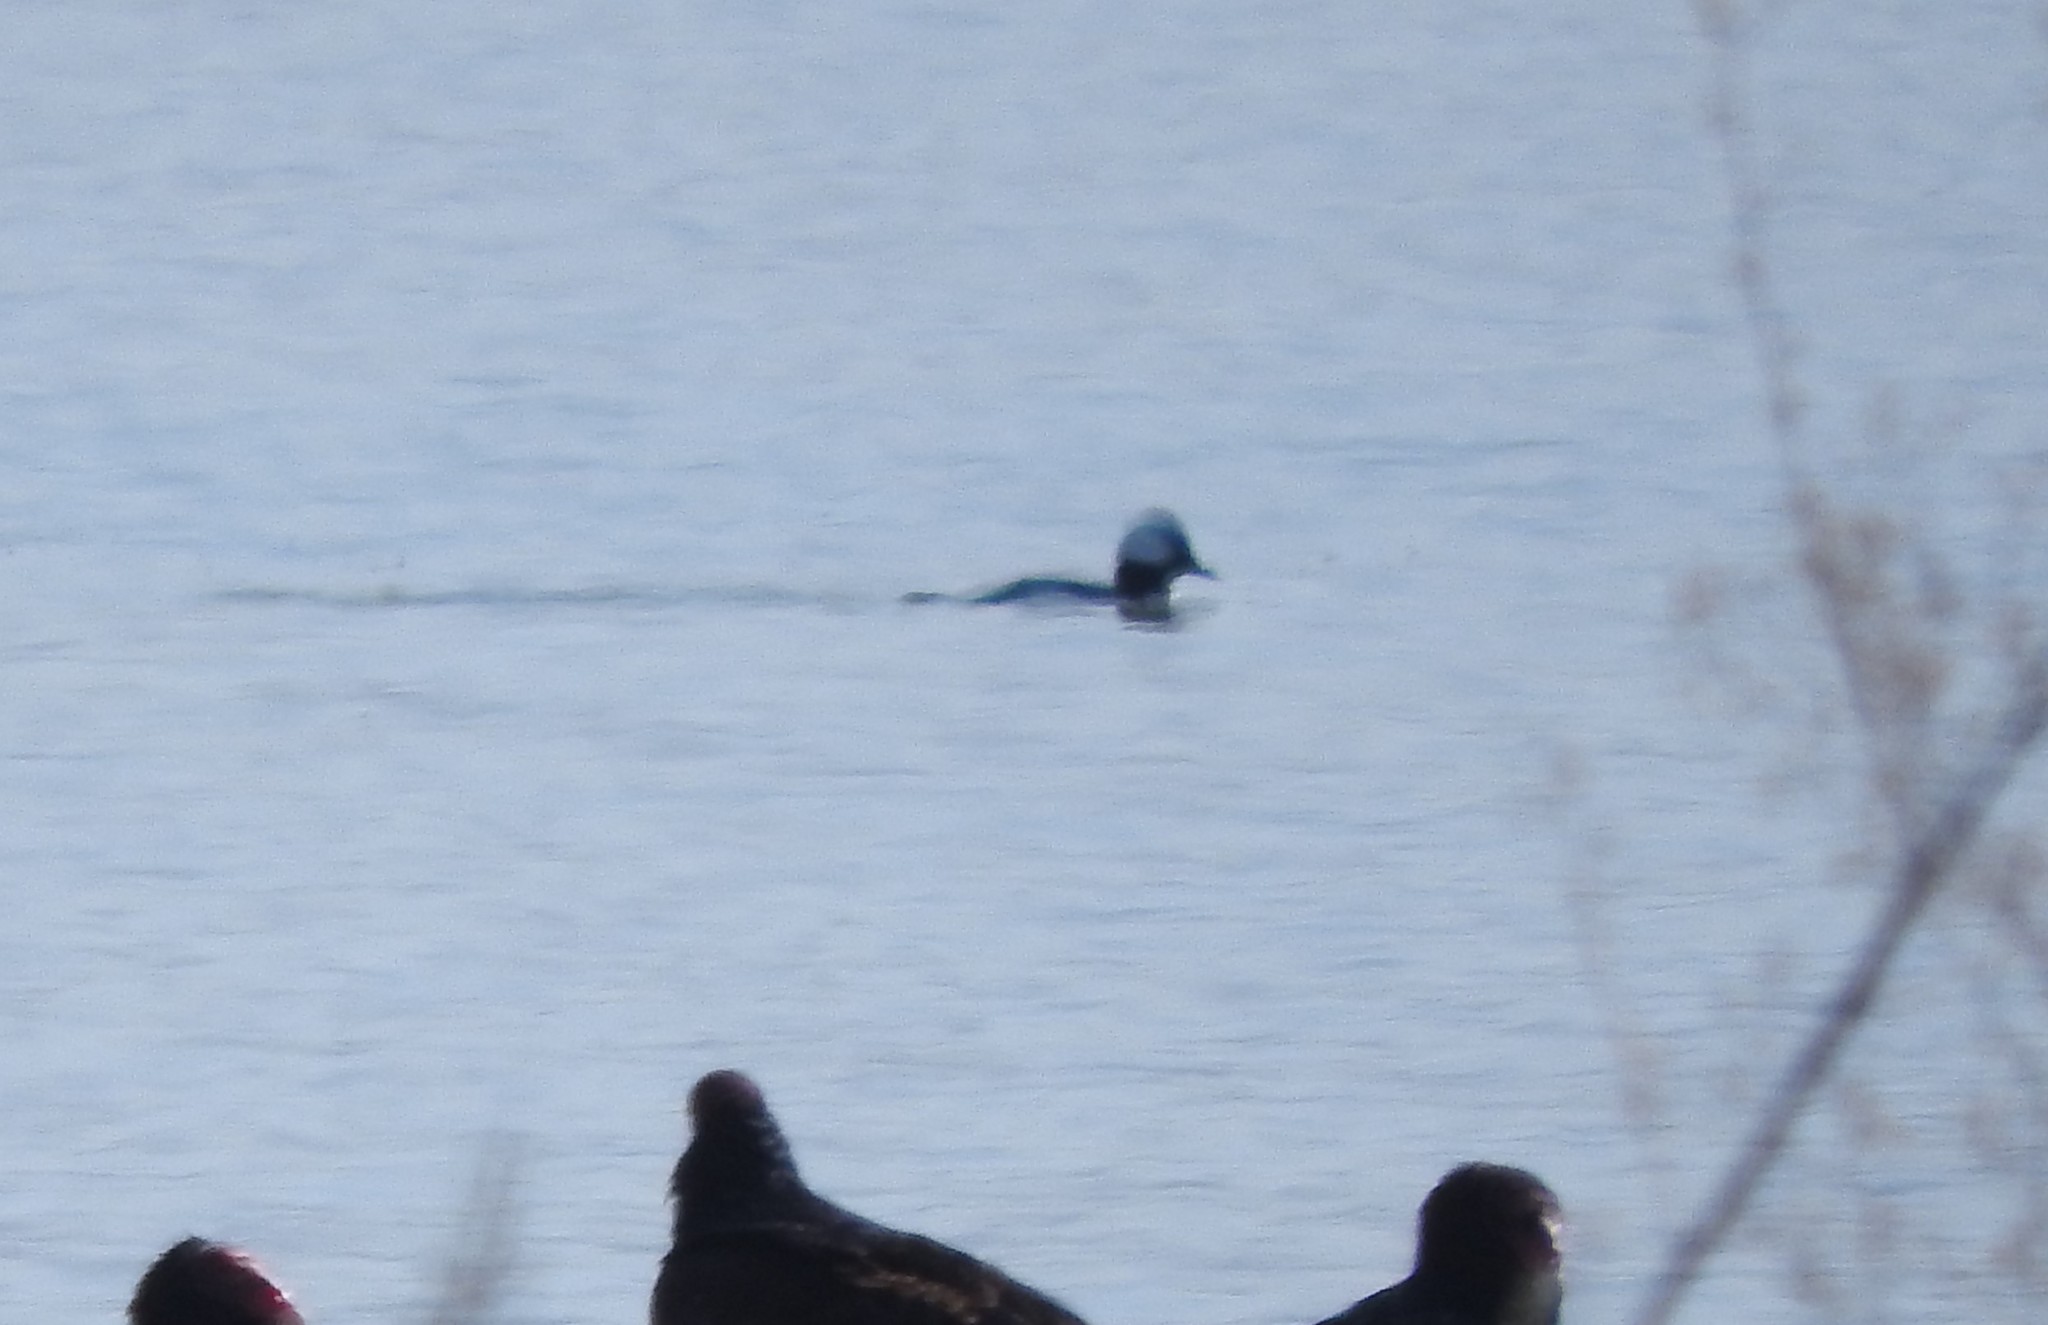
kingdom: Animalia
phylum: Chordata
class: Aves
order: Anseriformes
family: Anatidae
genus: Bucephala
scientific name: Bucephala albeola
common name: Bufflehead
